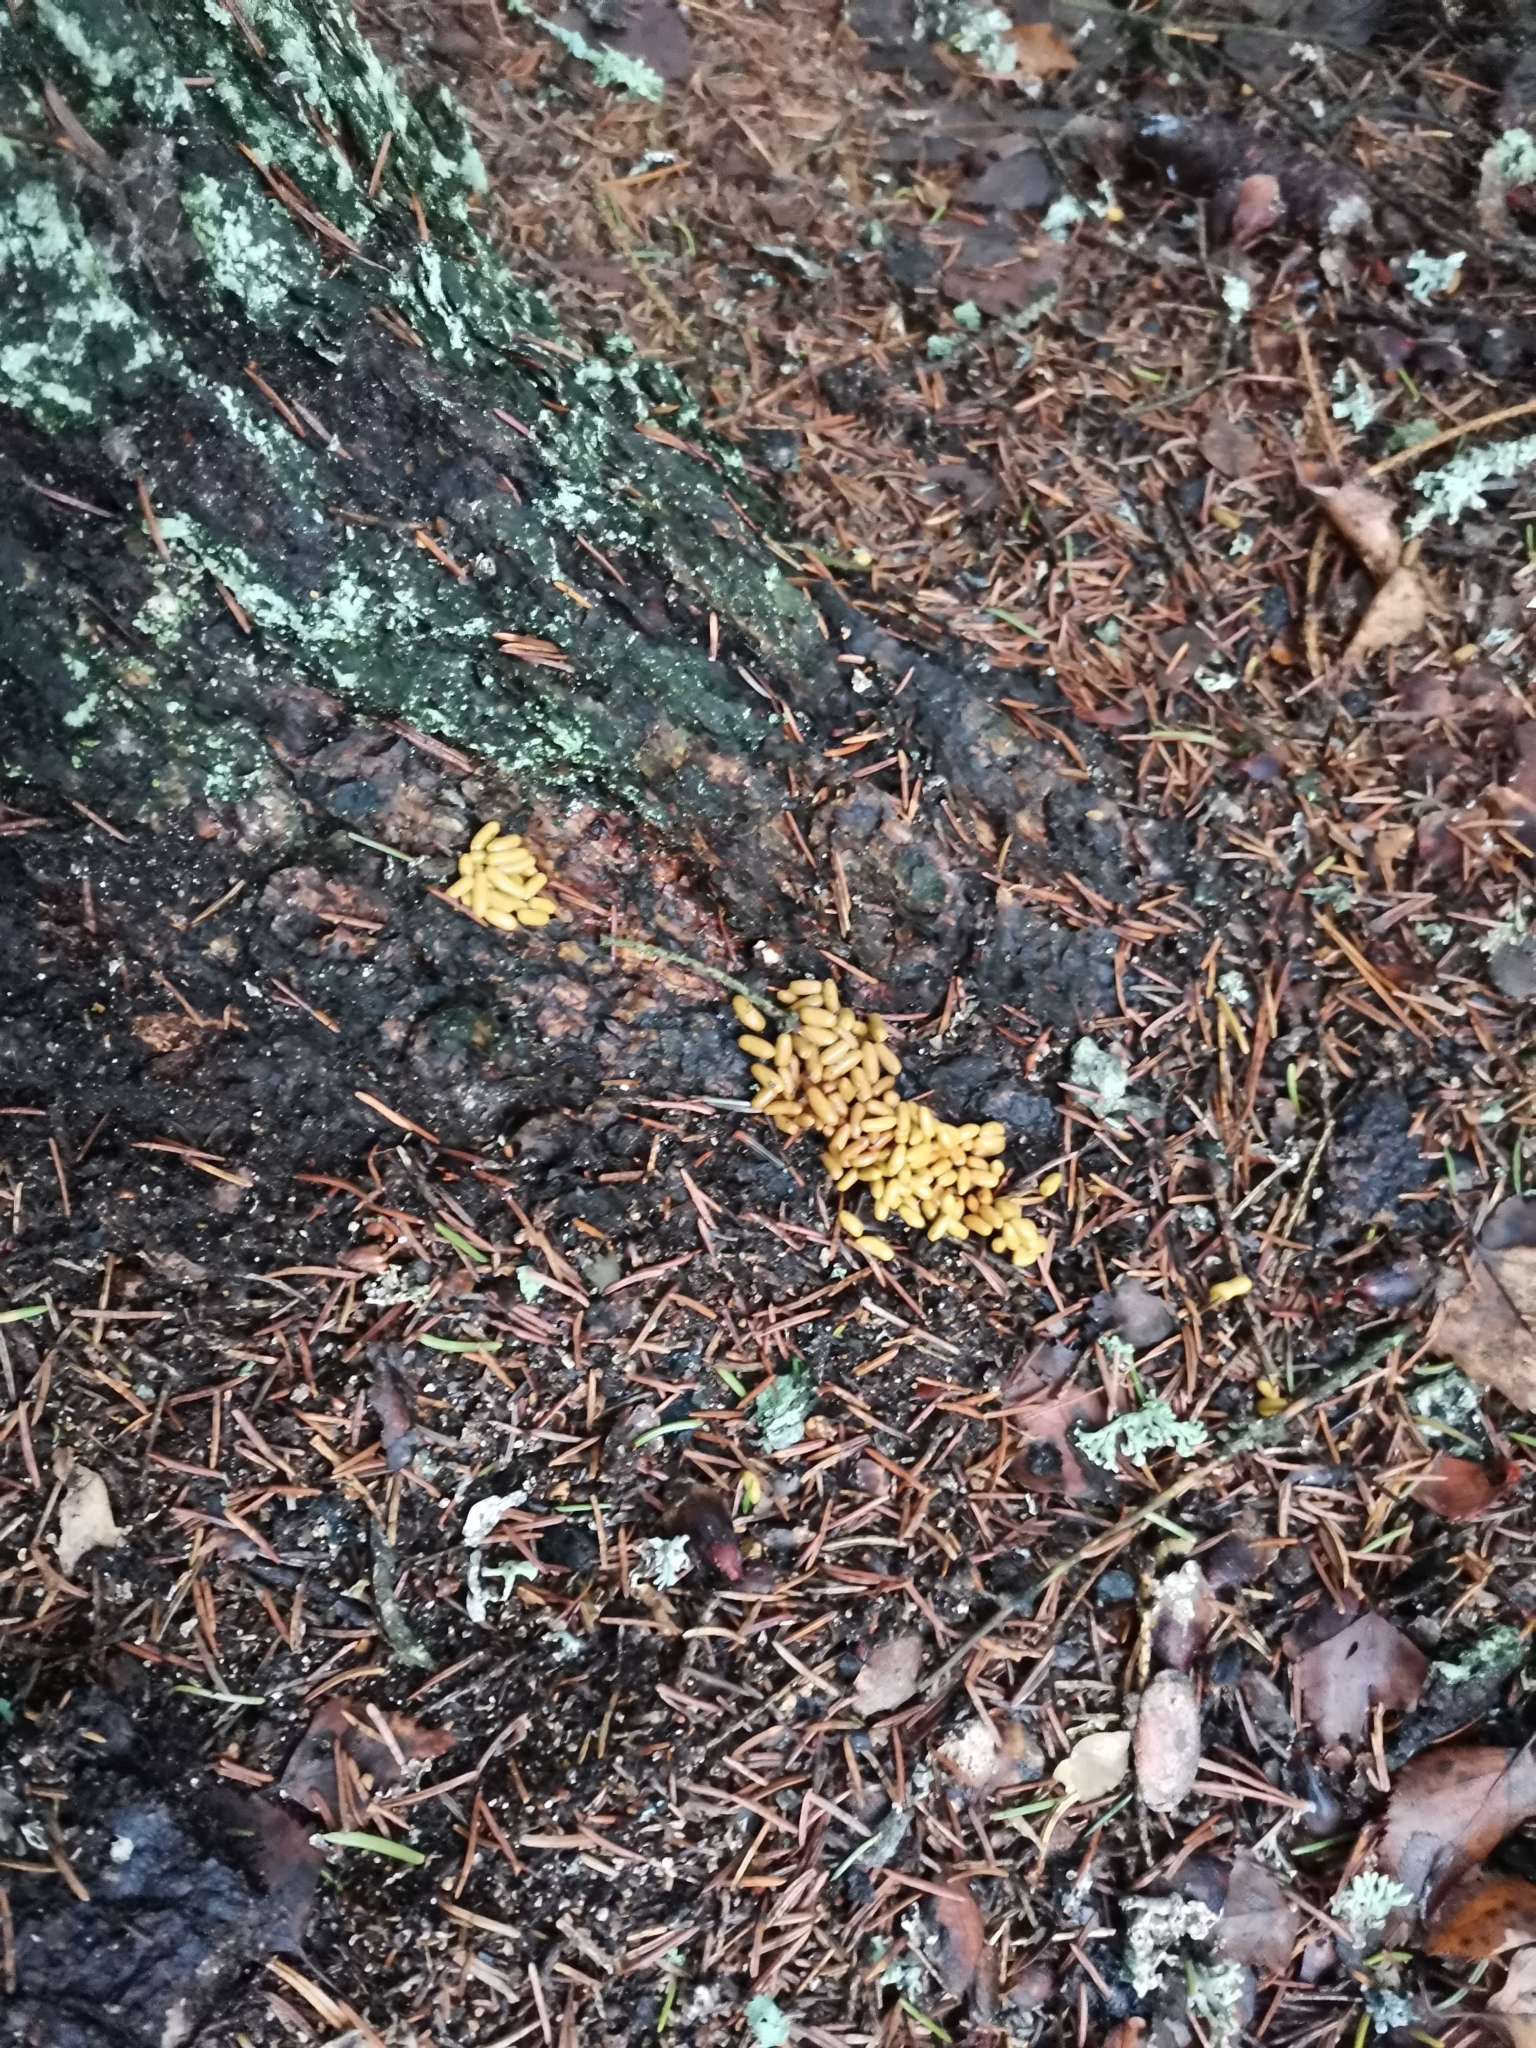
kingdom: Animalia
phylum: Chordata
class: Mammalia
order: Rodentia
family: Sciuridae
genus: Pteromys
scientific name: Pteromys volans
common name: Siberian flying squirrel
